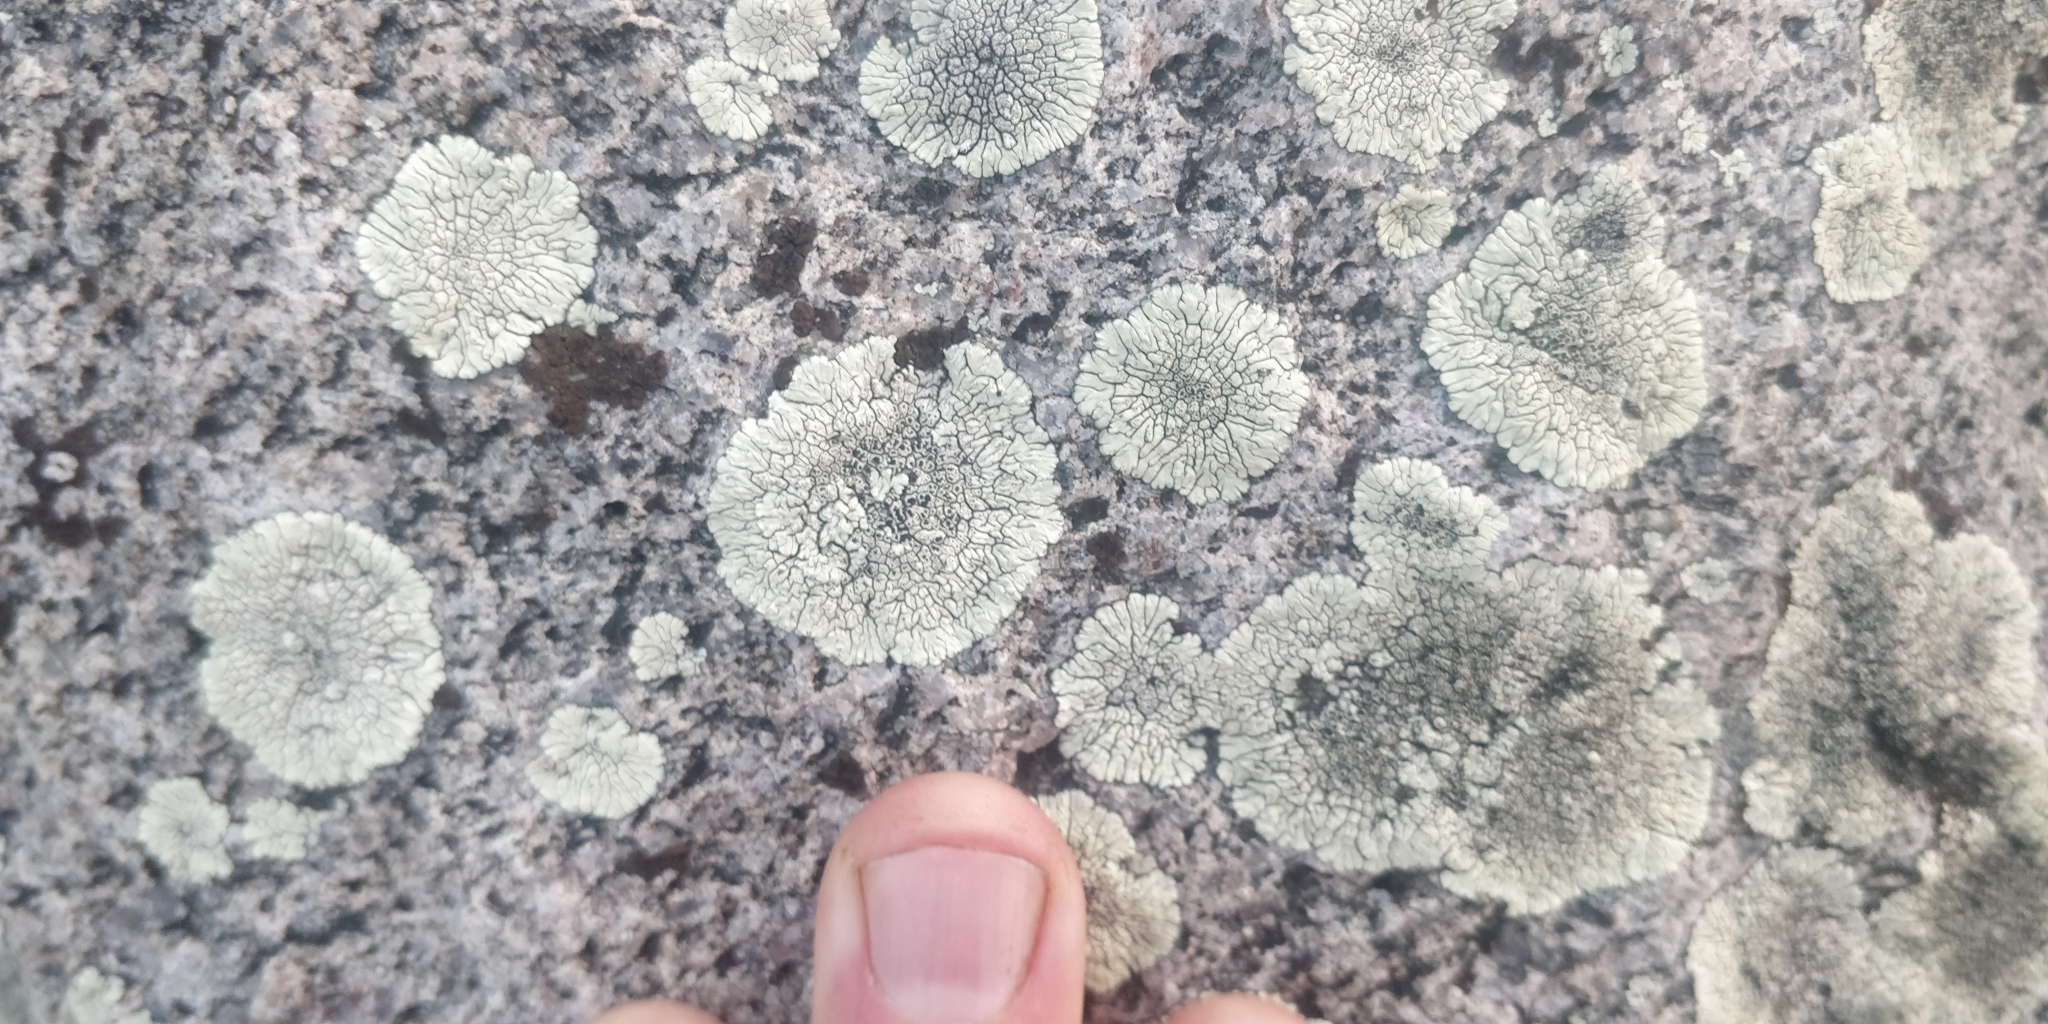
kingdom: Fungi
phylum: Ascomycota
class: Lecanoromycetes
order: Caliciales
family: Caliciaceae
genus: Dimelaena
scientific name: Dimelaena oreina
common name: Golden moonglow lichen
